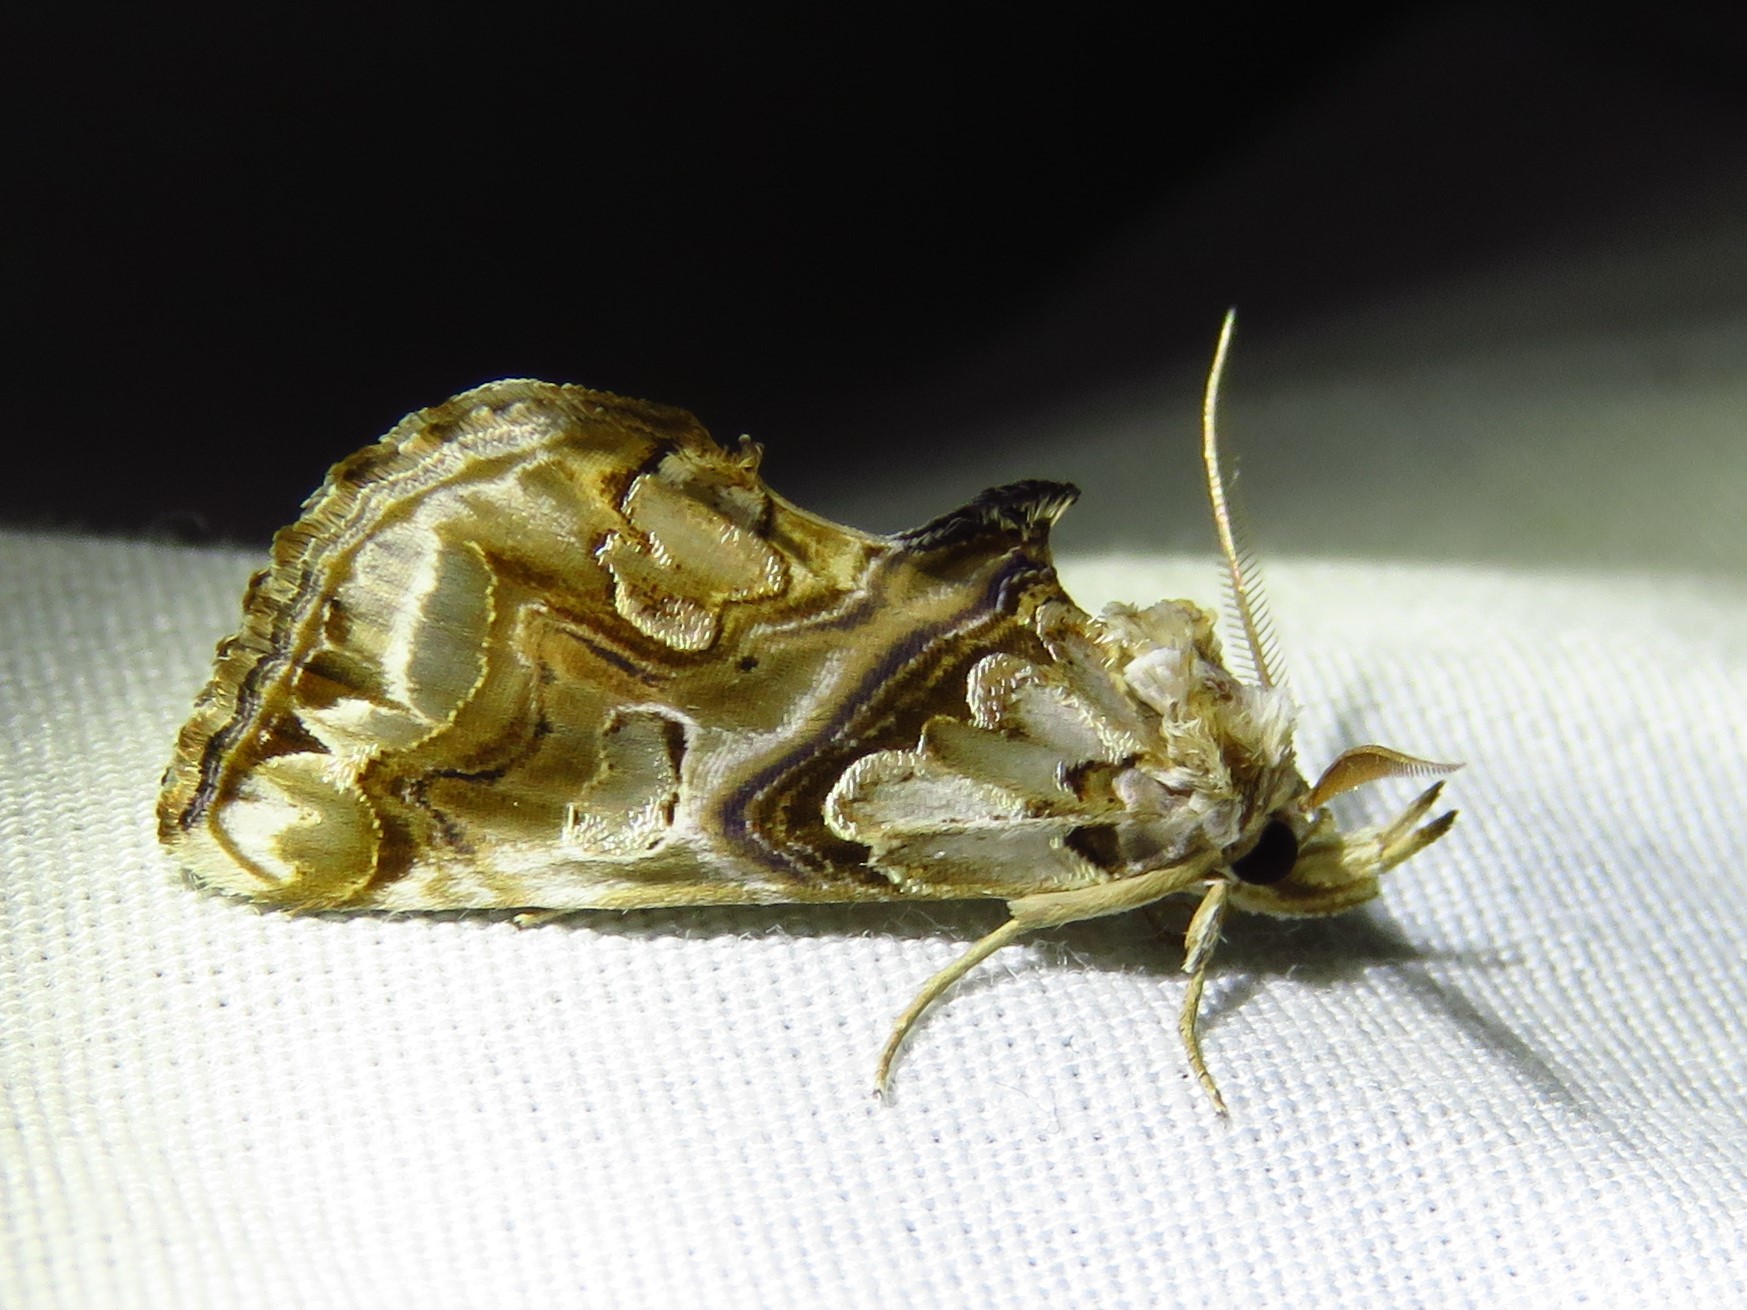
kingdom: Animalia
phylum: Arthropoda
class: Insecta
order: Lepidoptera
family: Erebidae
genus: Plusiodonta
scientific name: Plusiodonta compressipalpis
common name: Moonseed moth
